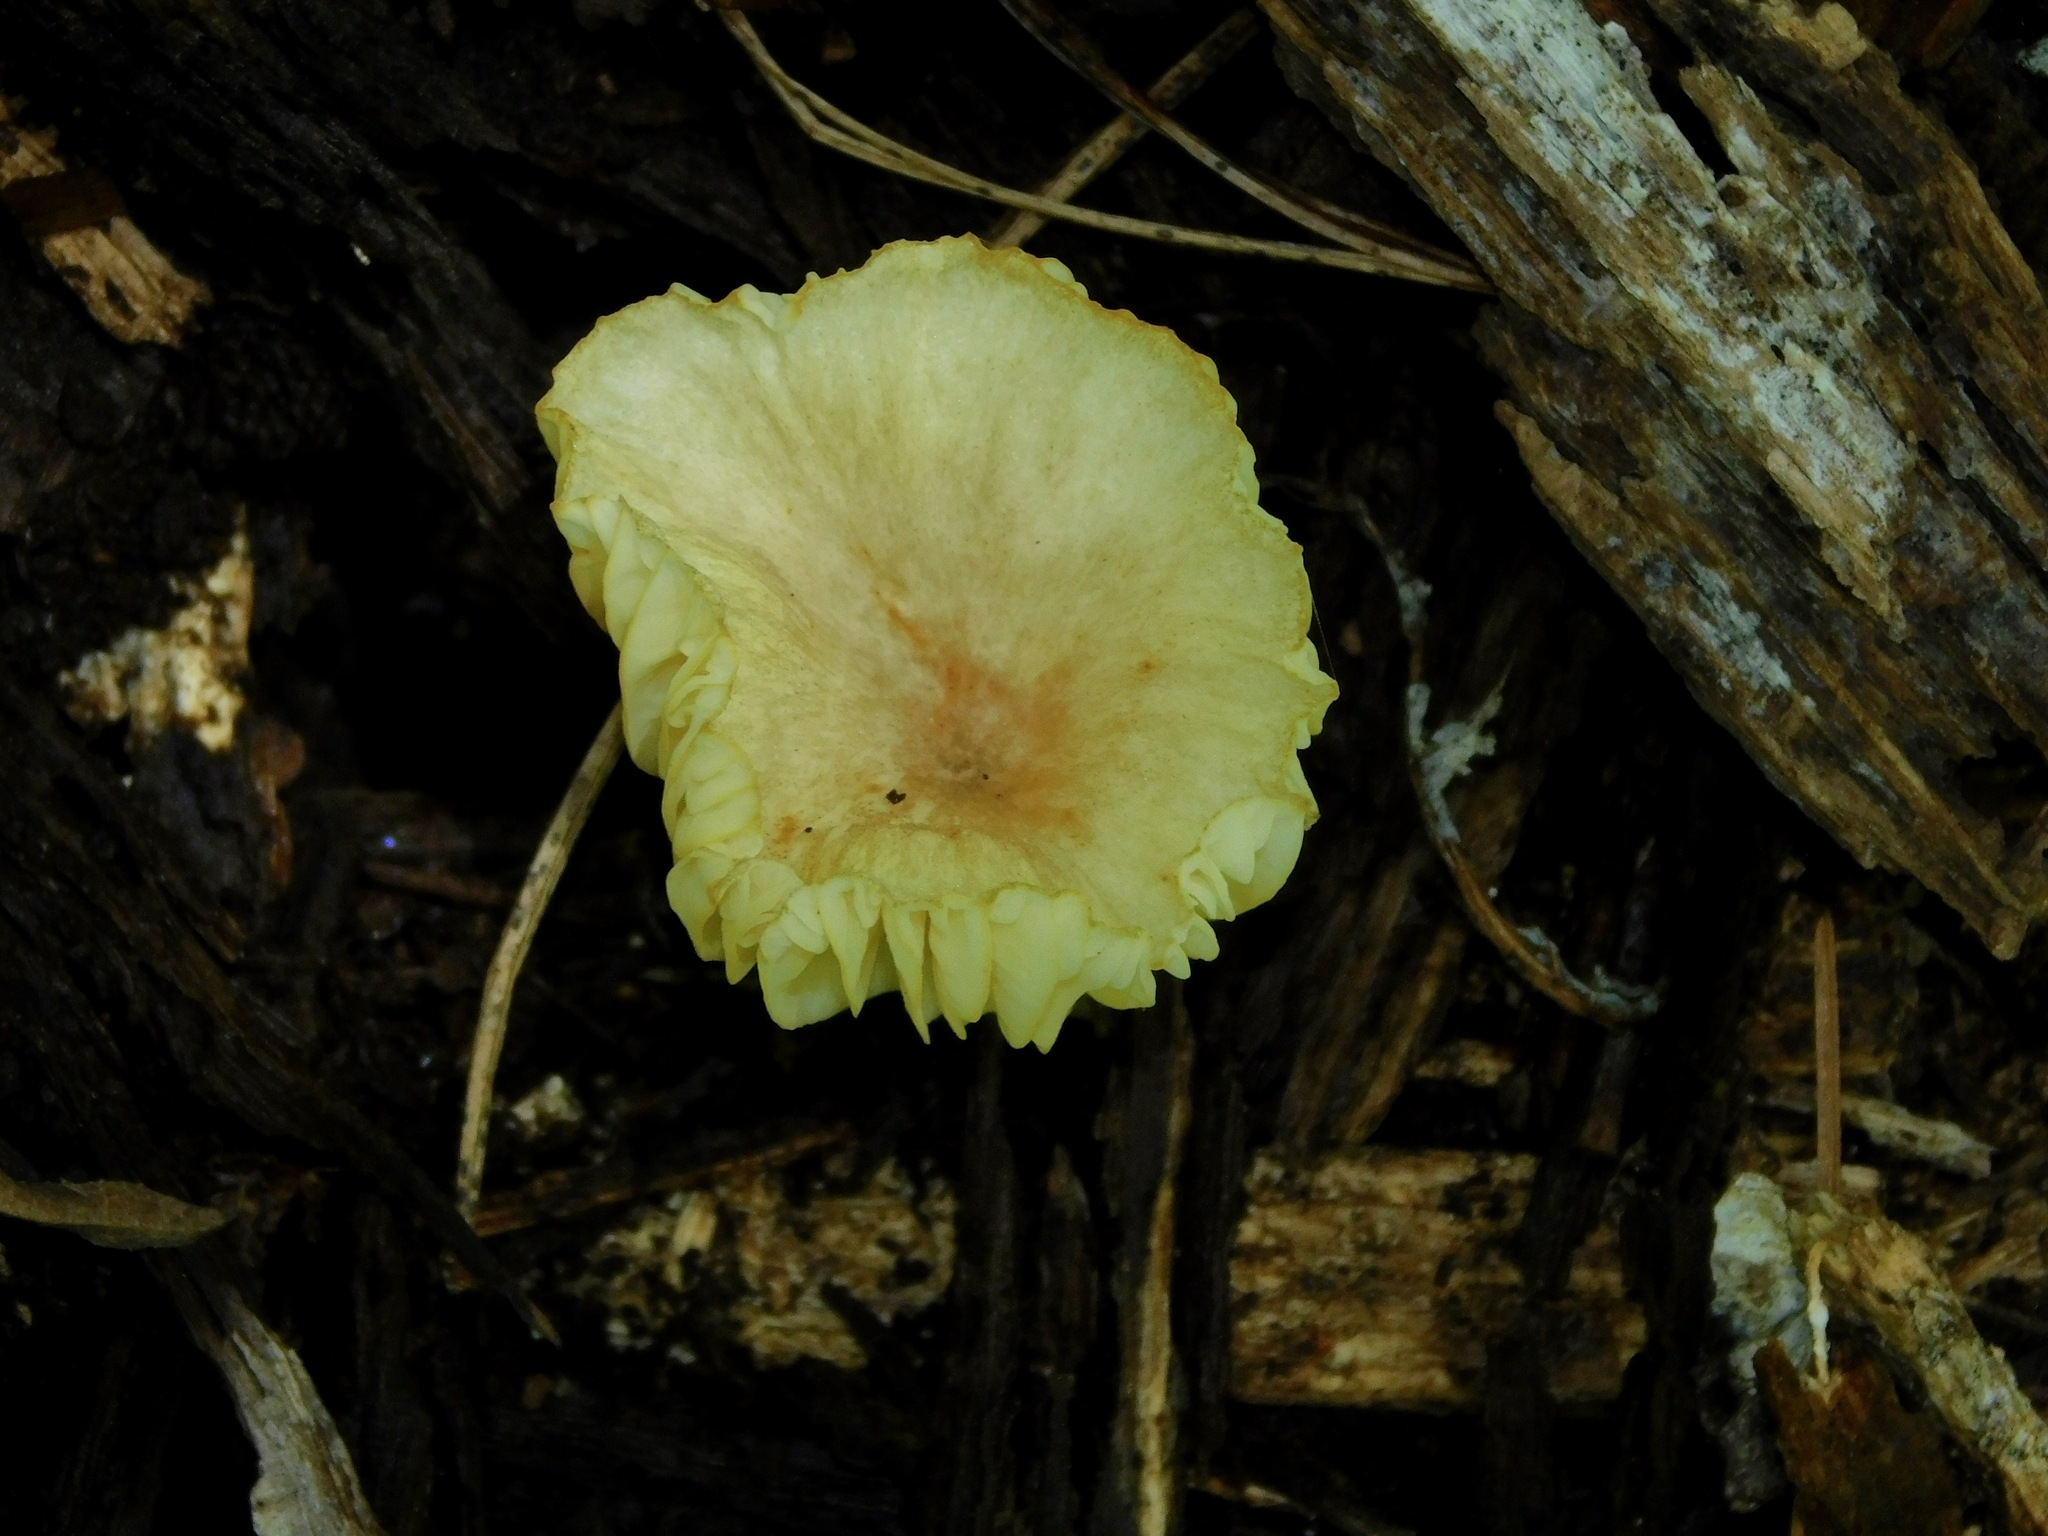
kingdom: Fungi
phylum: Basidiomycota
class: Agaricomycetes
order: Agaricales
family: Marasmiaceae
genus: Gerronema
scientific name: Gerronema strombodes
